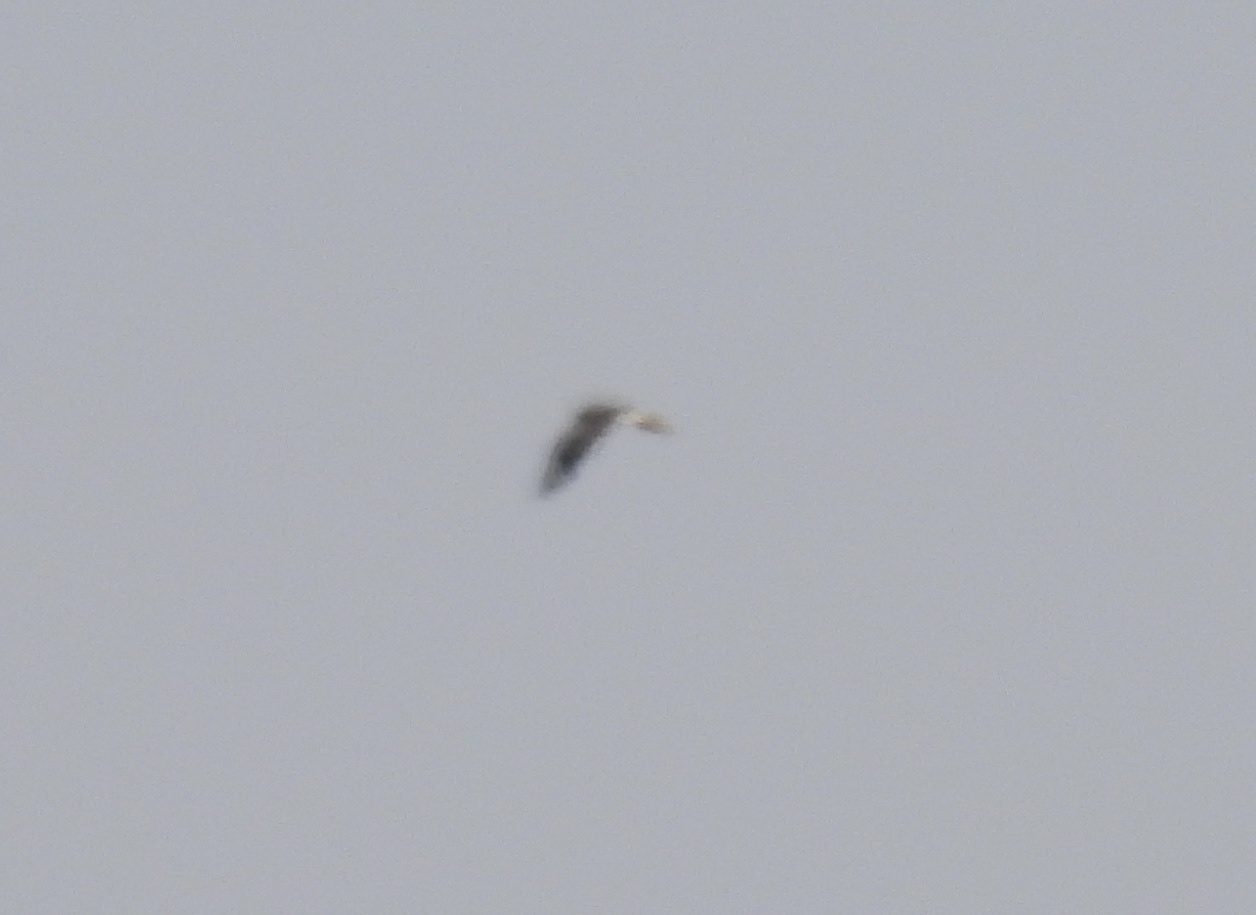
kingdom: Animalia
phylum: Chordata
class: Aves
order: Accipitriformes
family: Accipitridae
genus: Buteo
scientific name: Buteo regalis
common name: Ferruginous hawk
